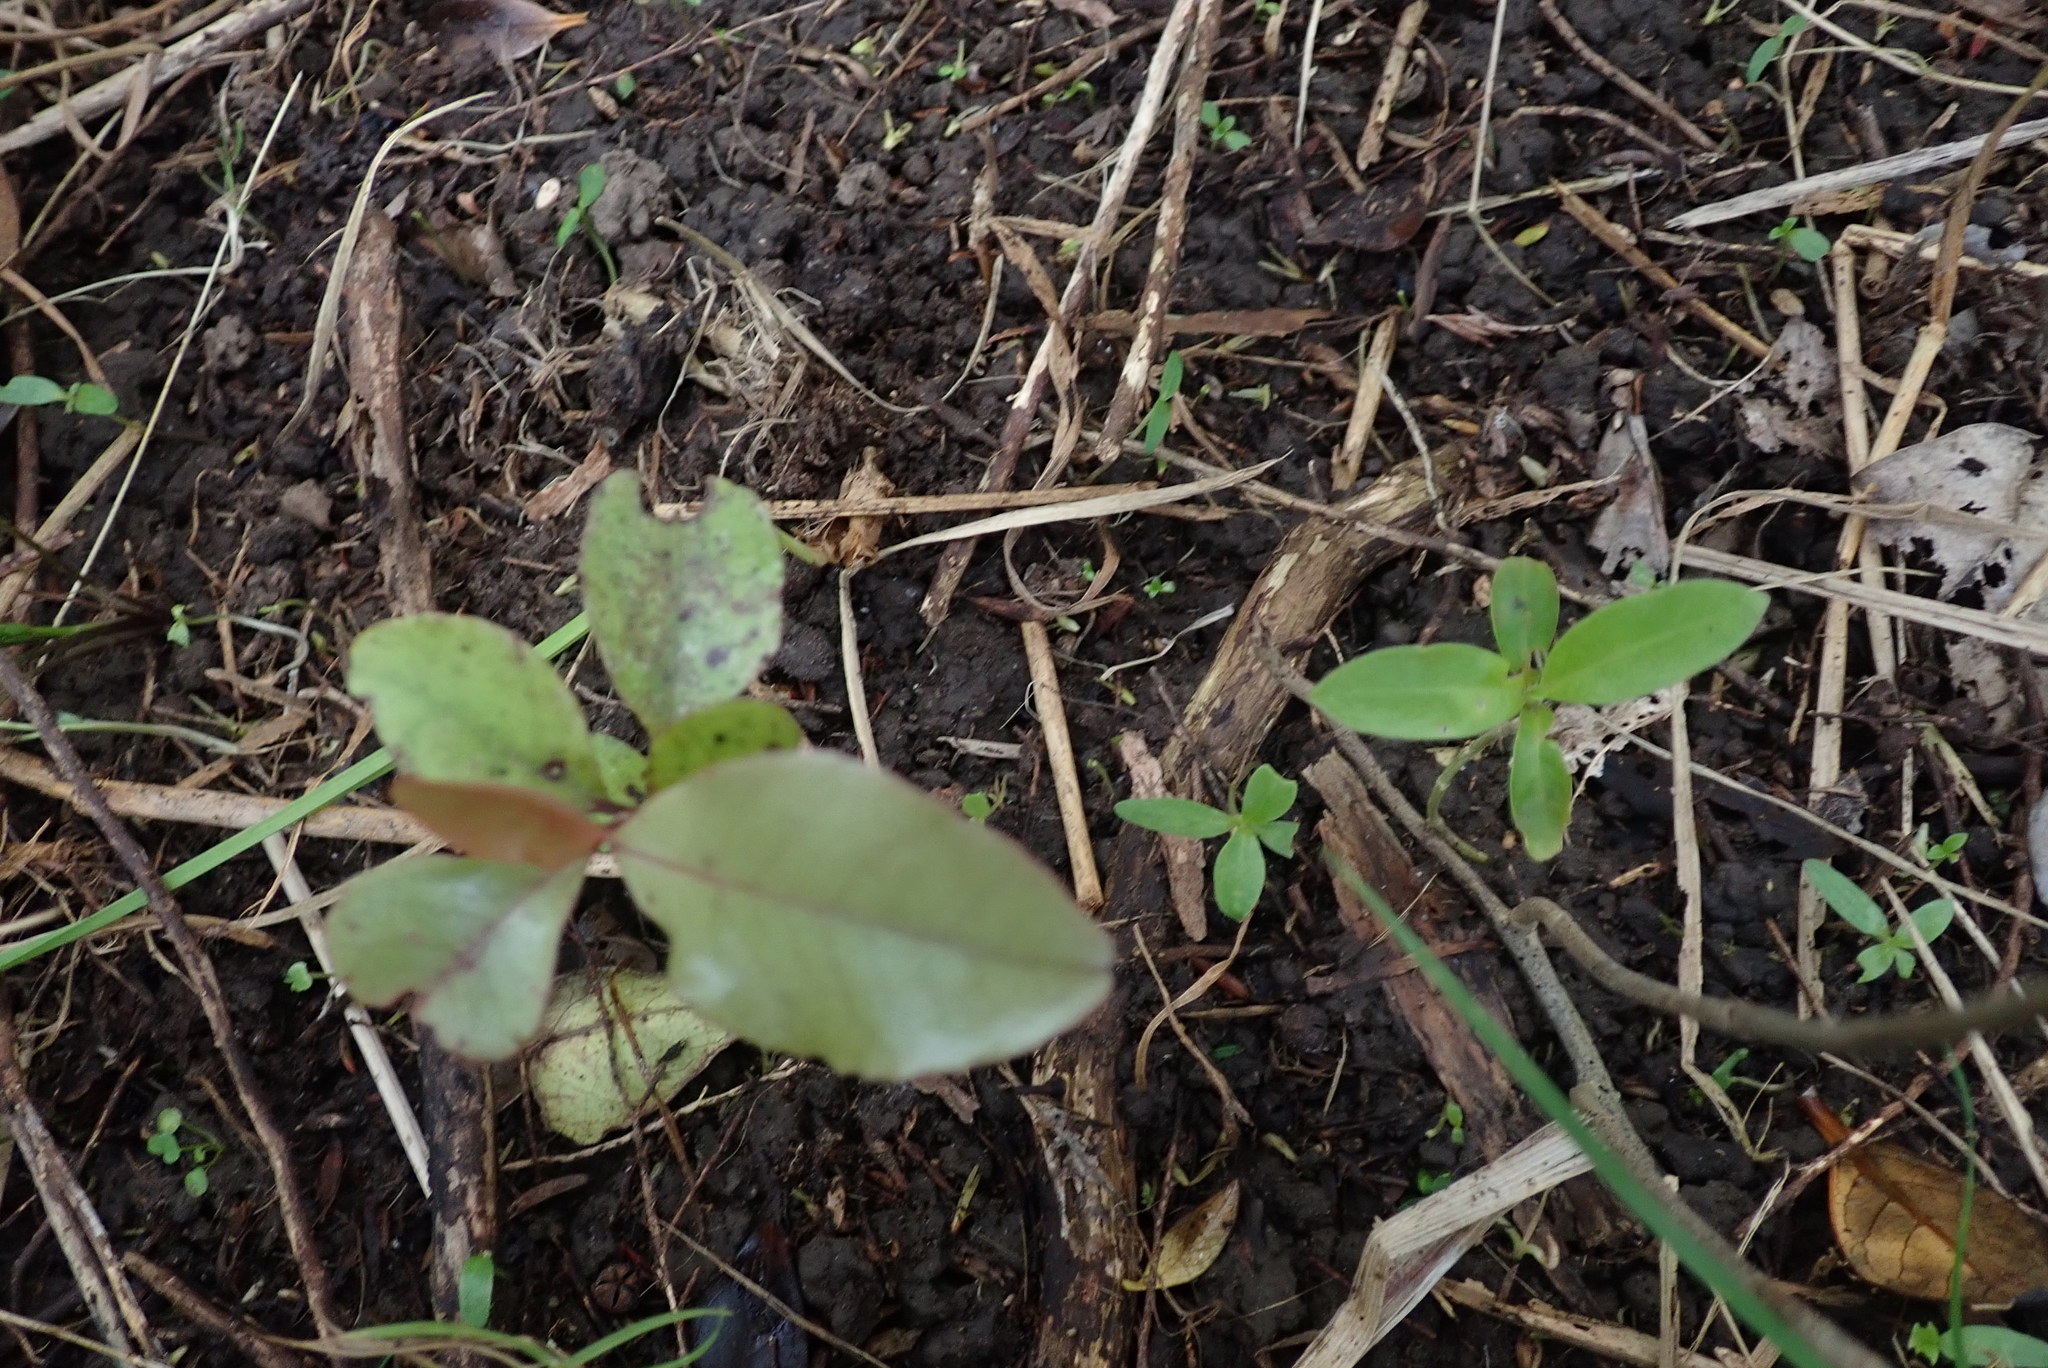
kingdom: Plantae
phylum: Tracheophyta
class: Magnoliopsida
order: Ericales
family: Primulaceae
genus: Myrsine
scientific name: Myrsine australis
